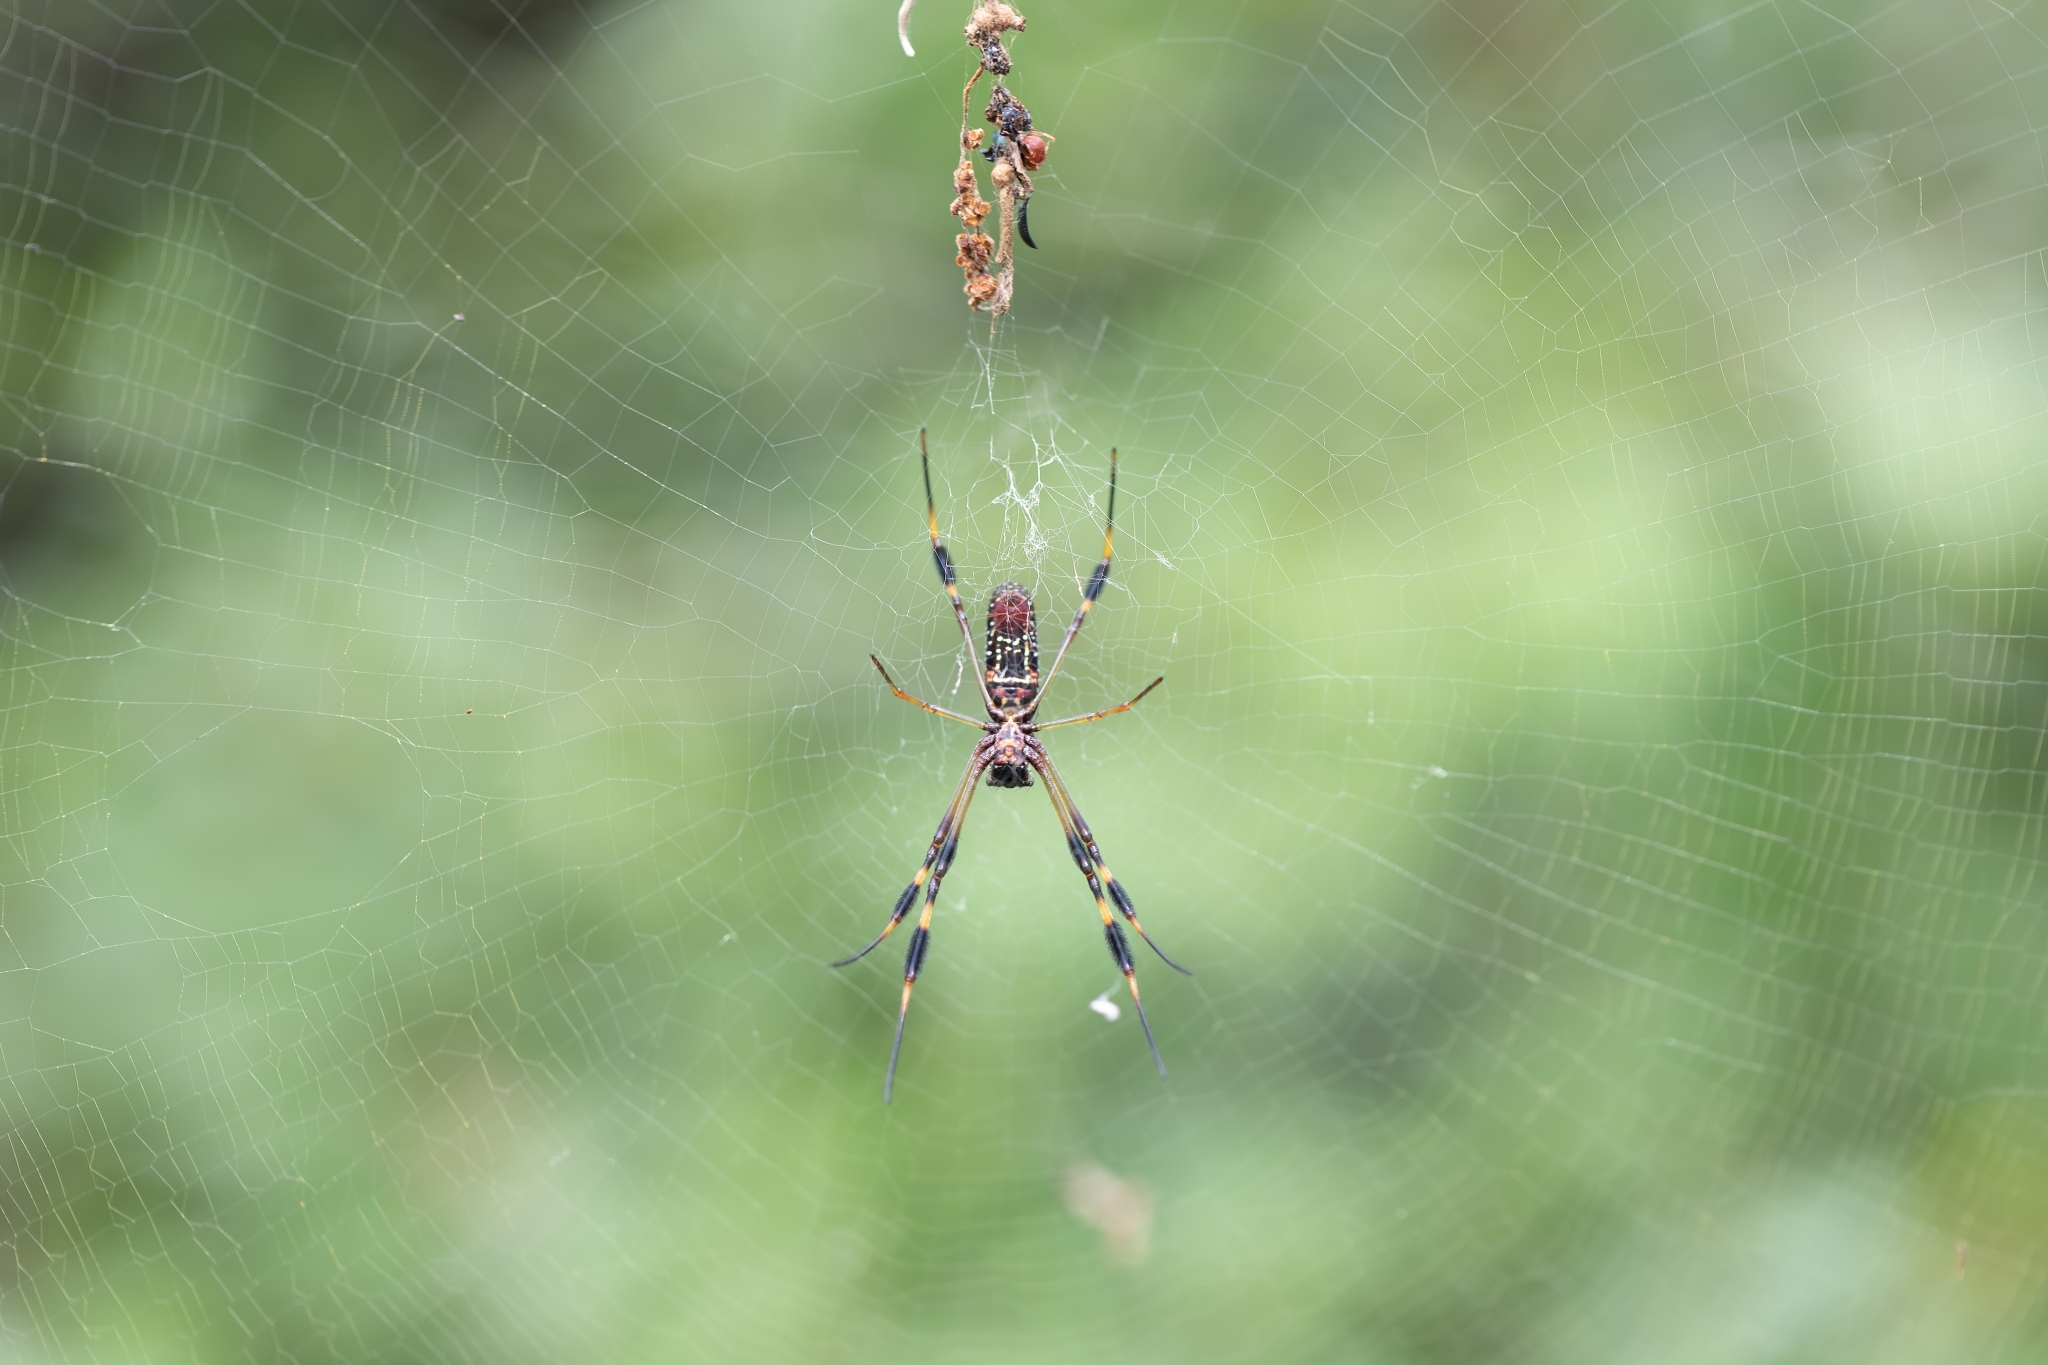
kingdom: Animalia
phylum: Arthropoda
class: Arachnida
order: Araneae
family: Araneidae
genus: Trichonephila
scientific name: Trichonephila clavipes
